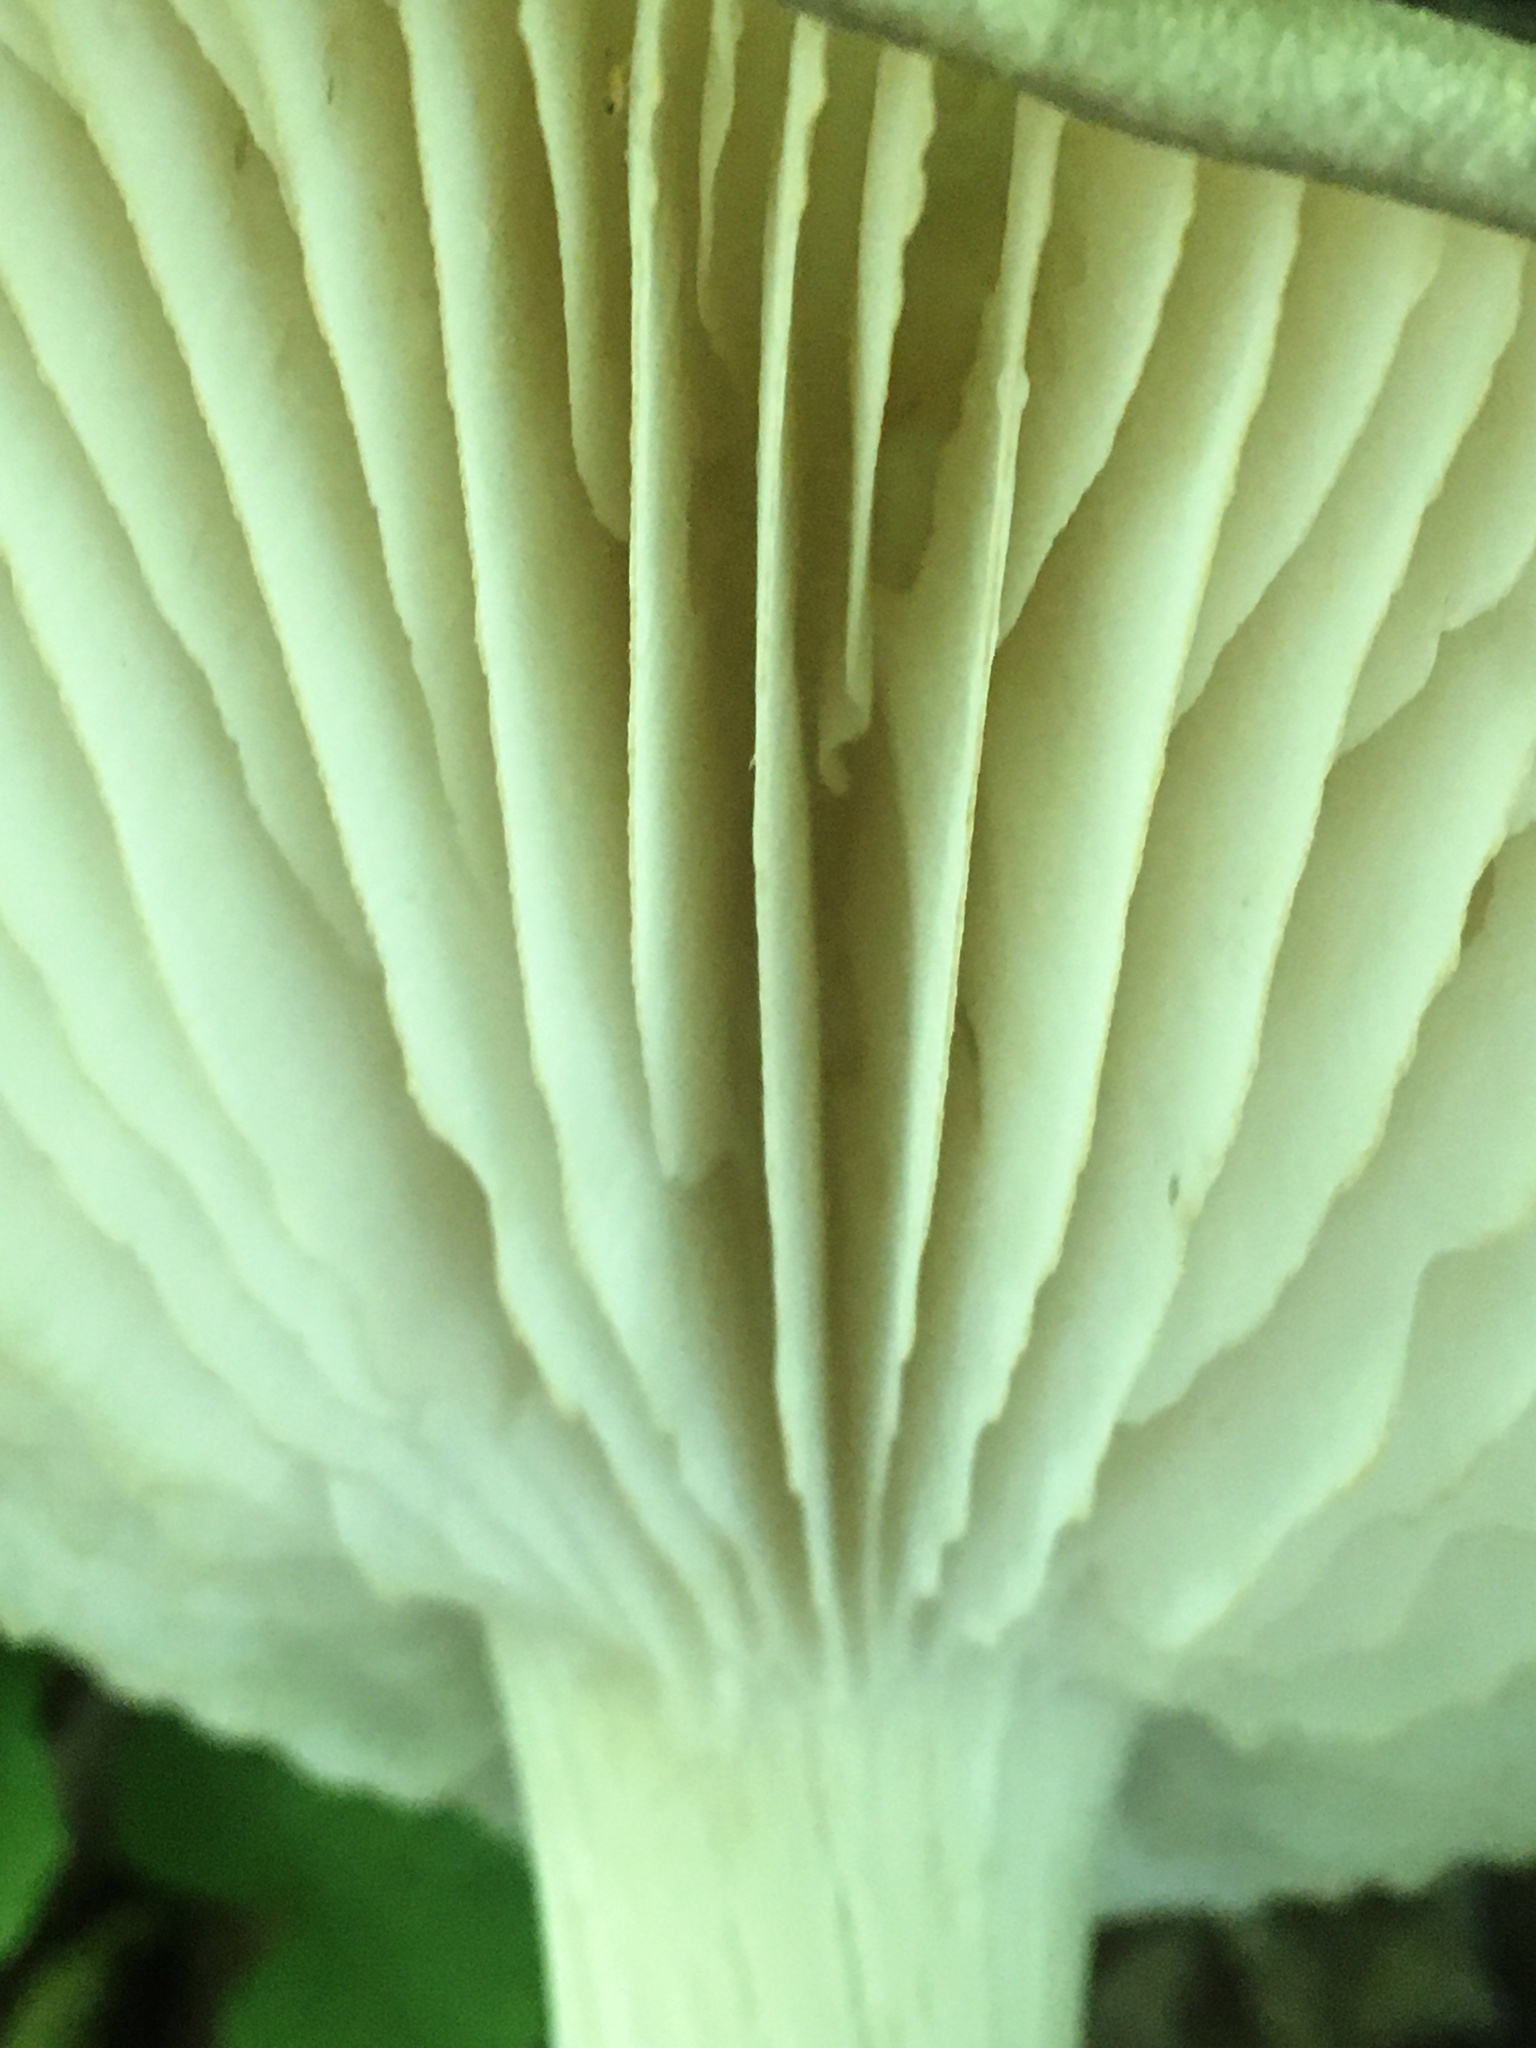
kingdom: Fungi
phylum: Basidiomycota
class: Agaricomycetes
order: Agaricales
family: Tricholomataceae
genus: Megacollybia
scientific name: Megacollybia rodmanii
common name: Eastern american platterful mushroom
